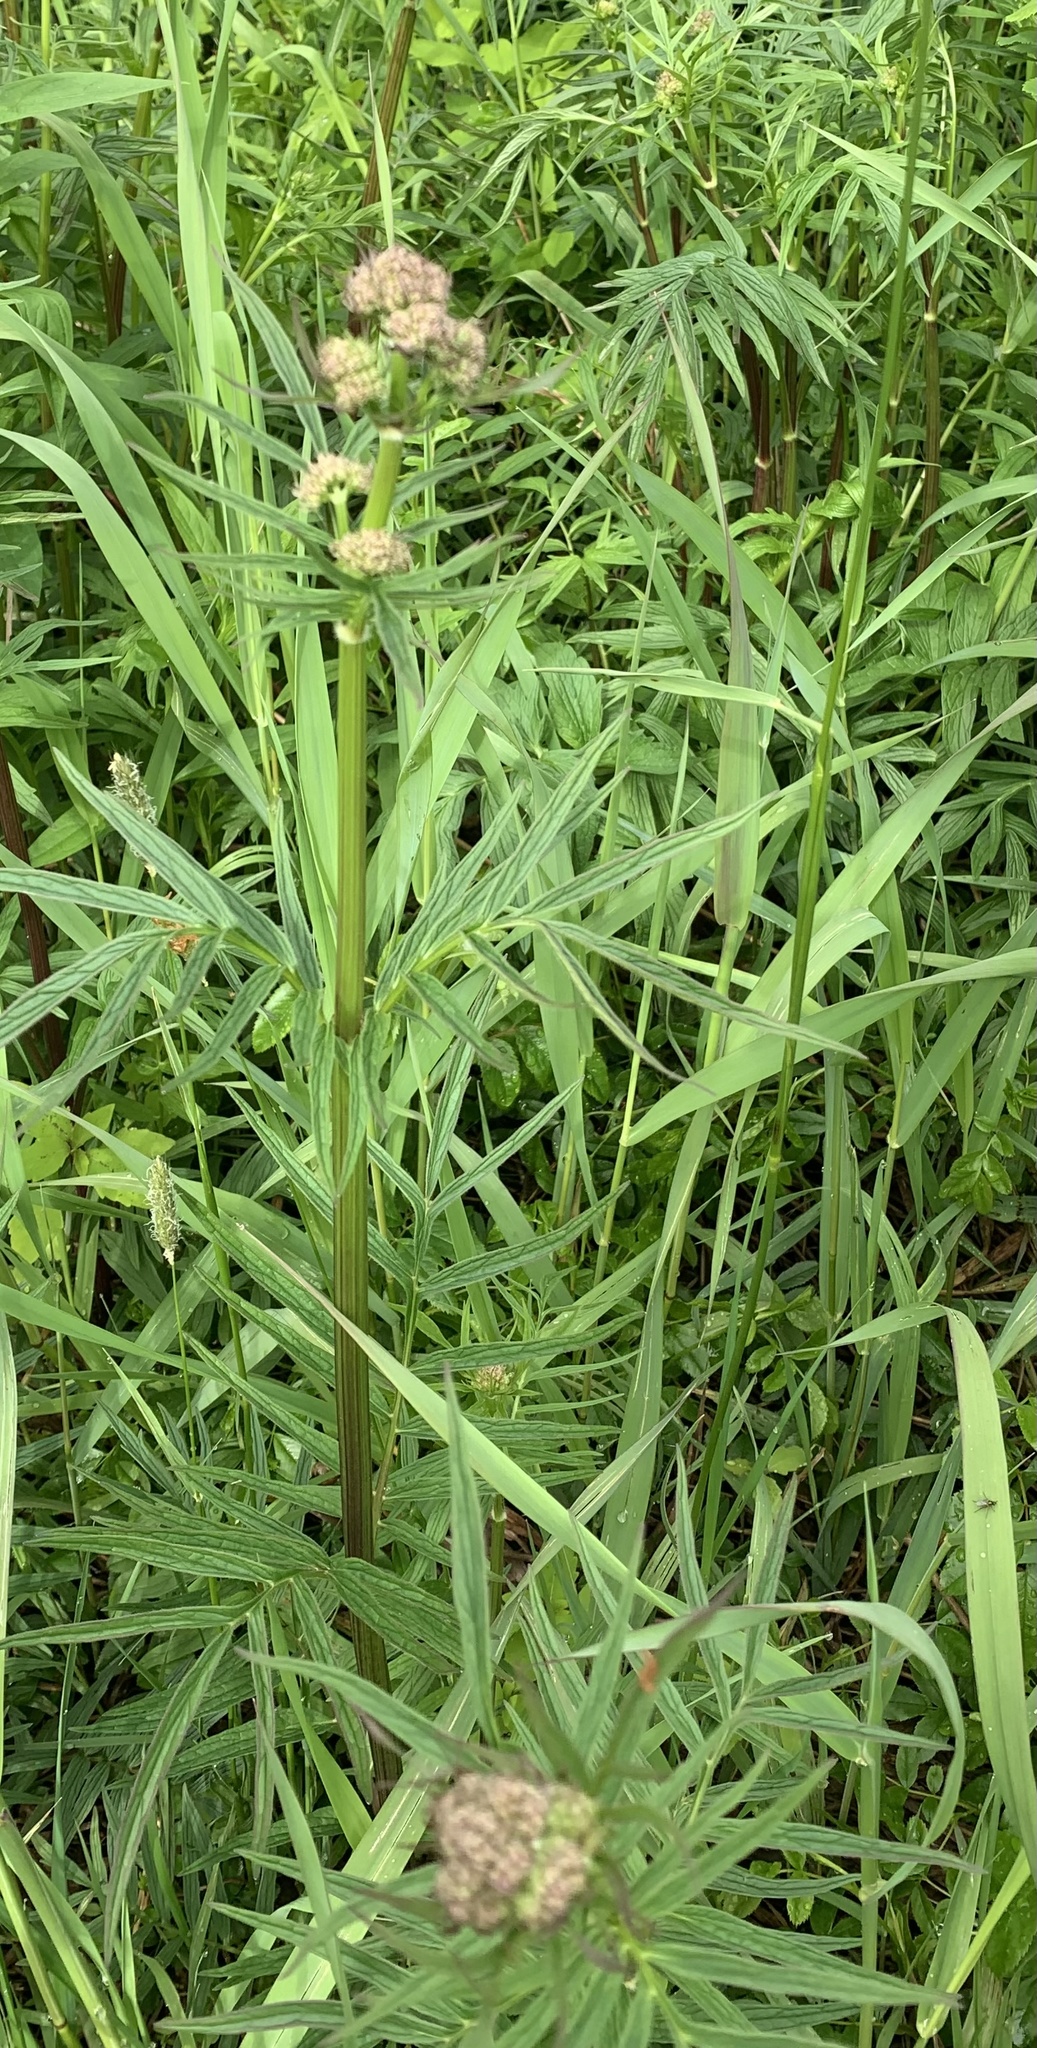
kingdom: Plantae
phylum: Tracheophyta
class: Magnoliopsida
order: Dipsacales
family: Caprifoliaceae
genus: Valeriana
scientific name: Valeriana officinalis
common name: Common valerian
